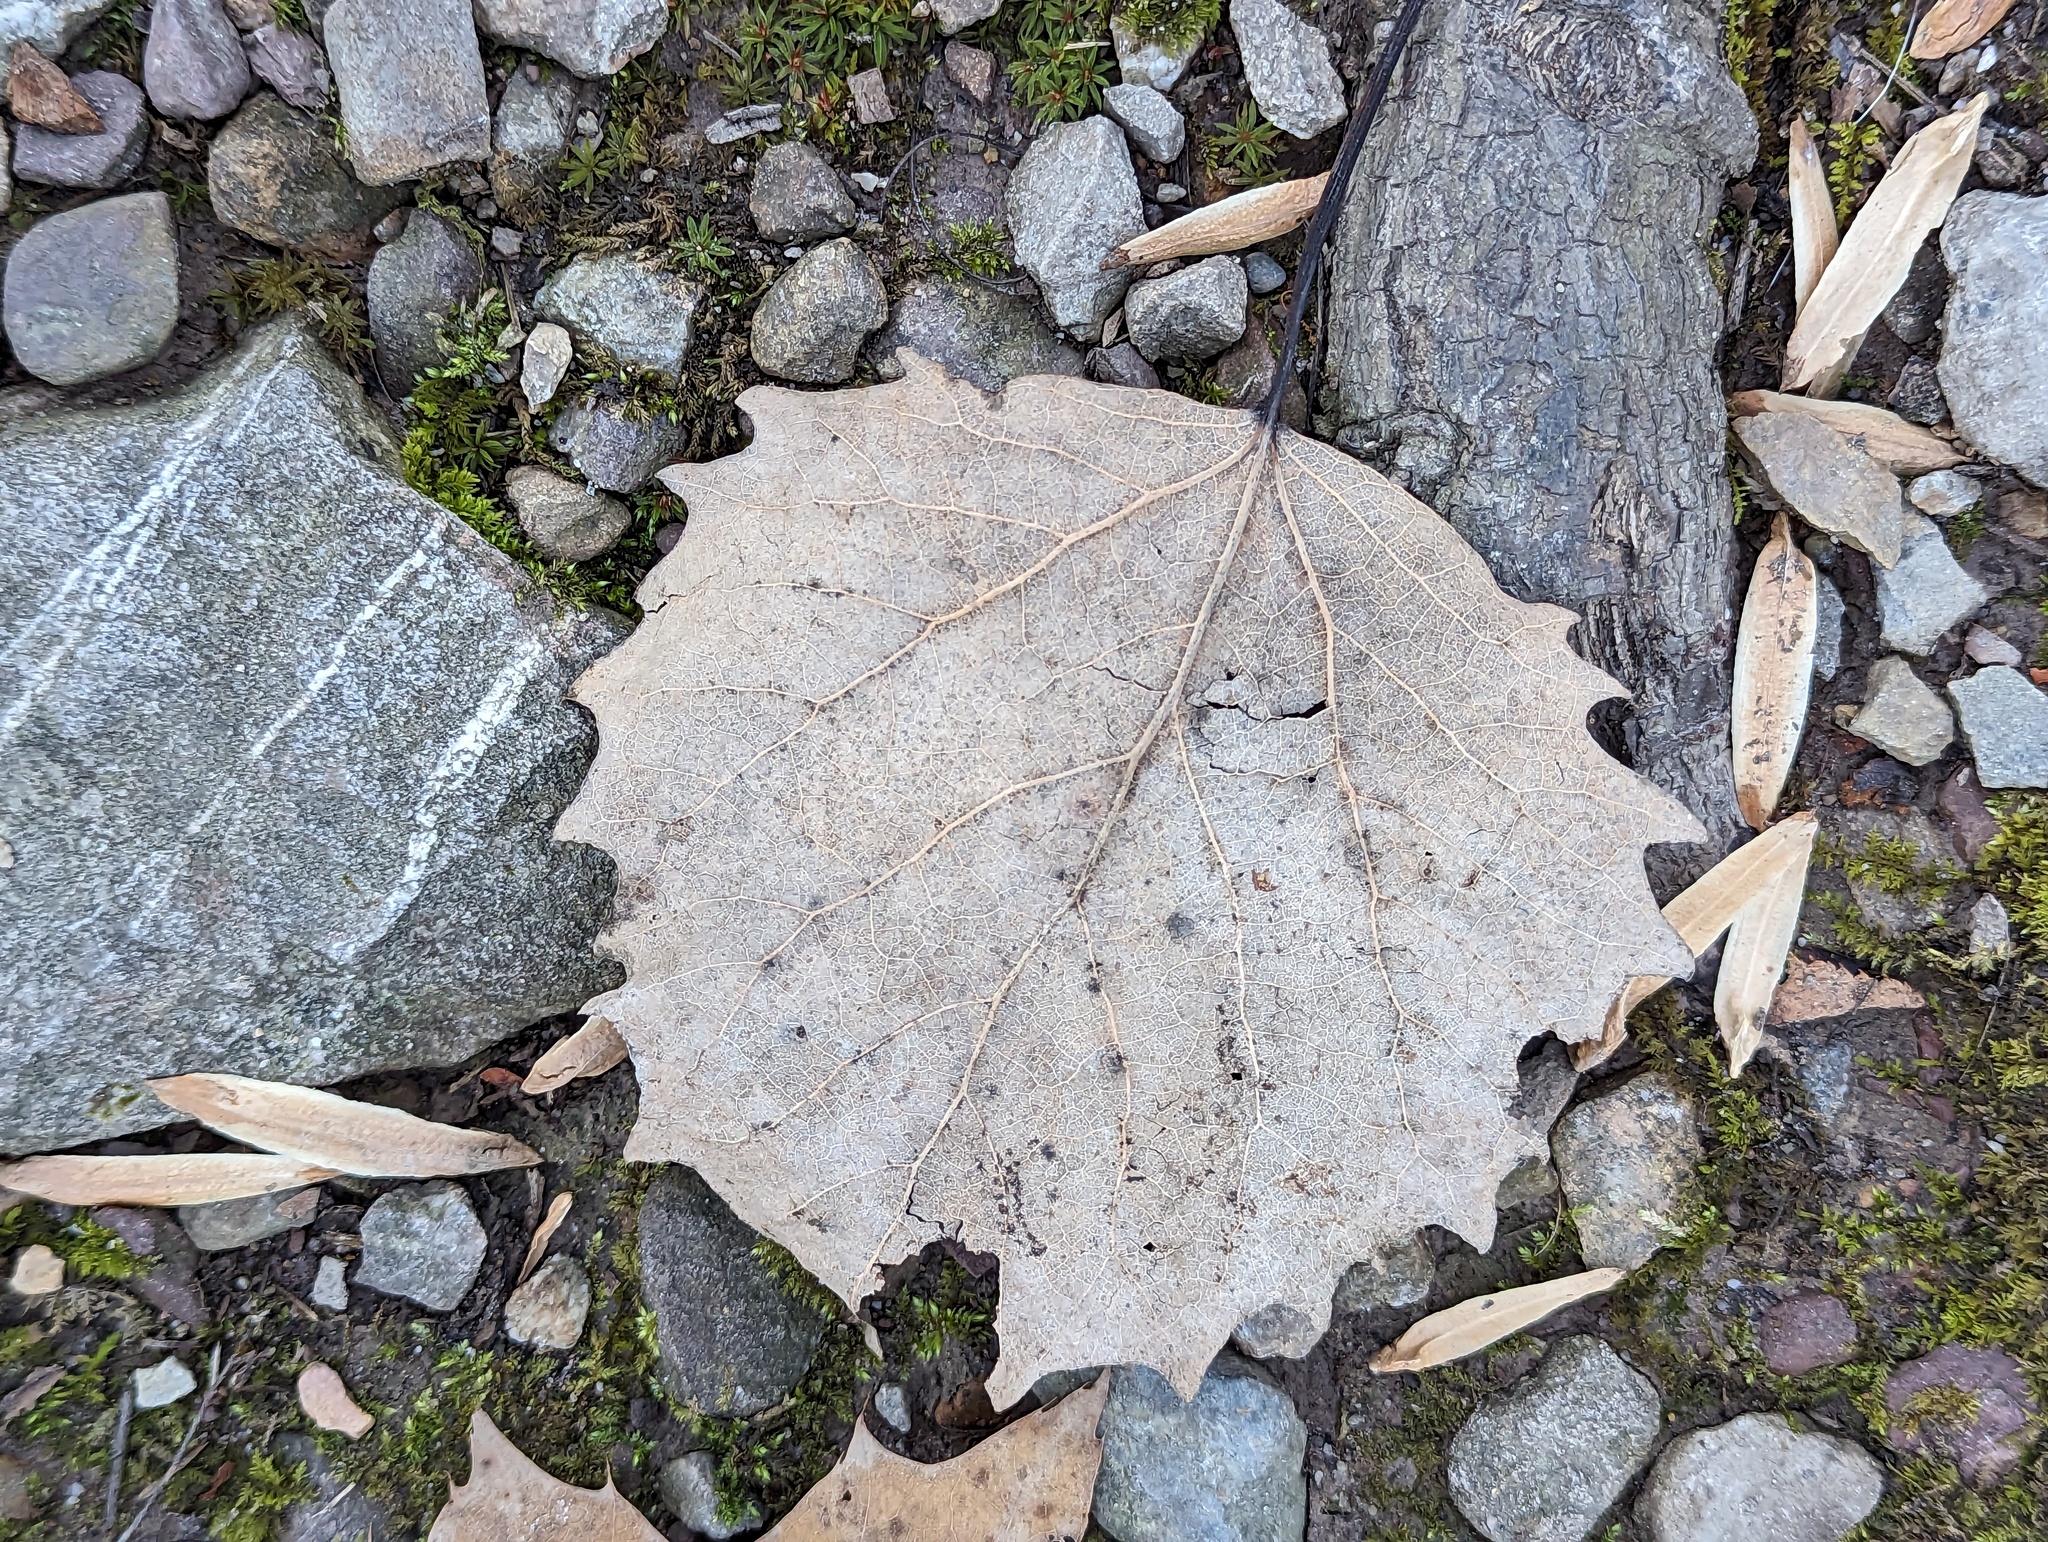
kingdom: Plantae
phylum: Tracheophyta
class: Magnoliopsida
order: Malpighiales
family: Salicaceae
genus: Populus
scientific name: Populus grandidentata
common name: Bigtooth aspen
